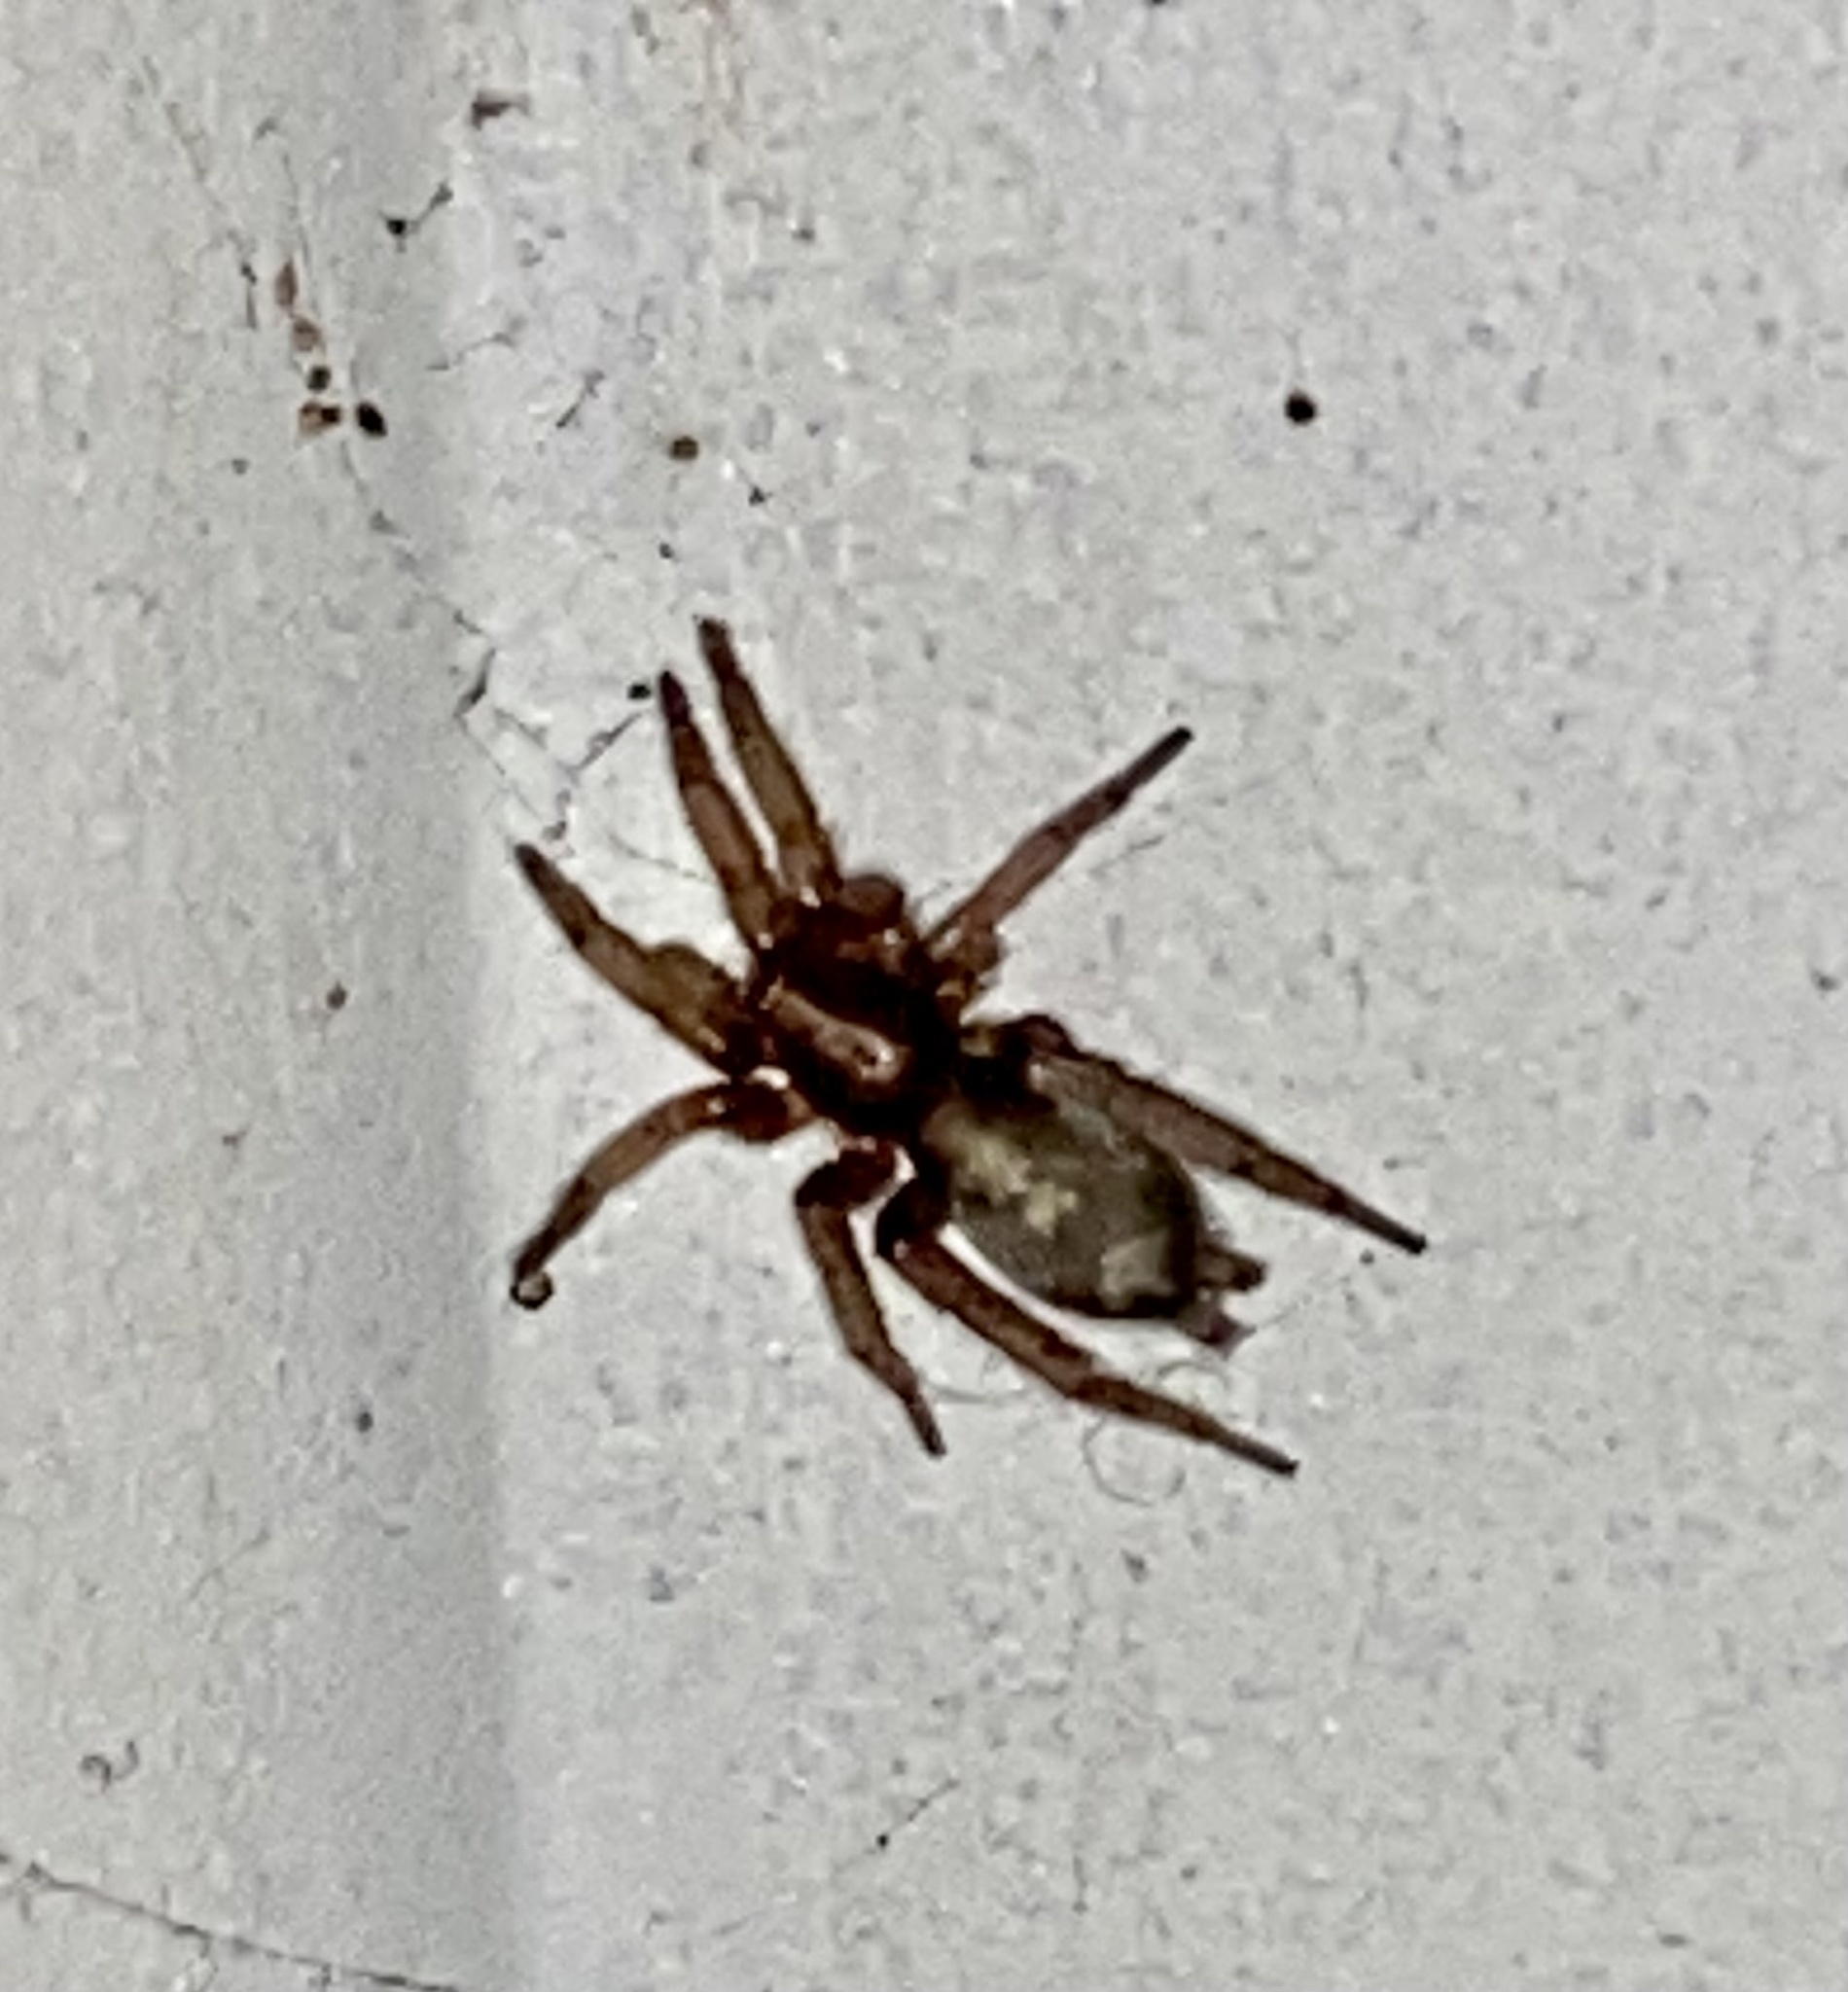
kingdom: Animalia
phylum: Arthropoda
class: Arachnida
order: Araneae
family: Gnaphosidae
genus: Herpyllus
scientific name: Herpyllus
